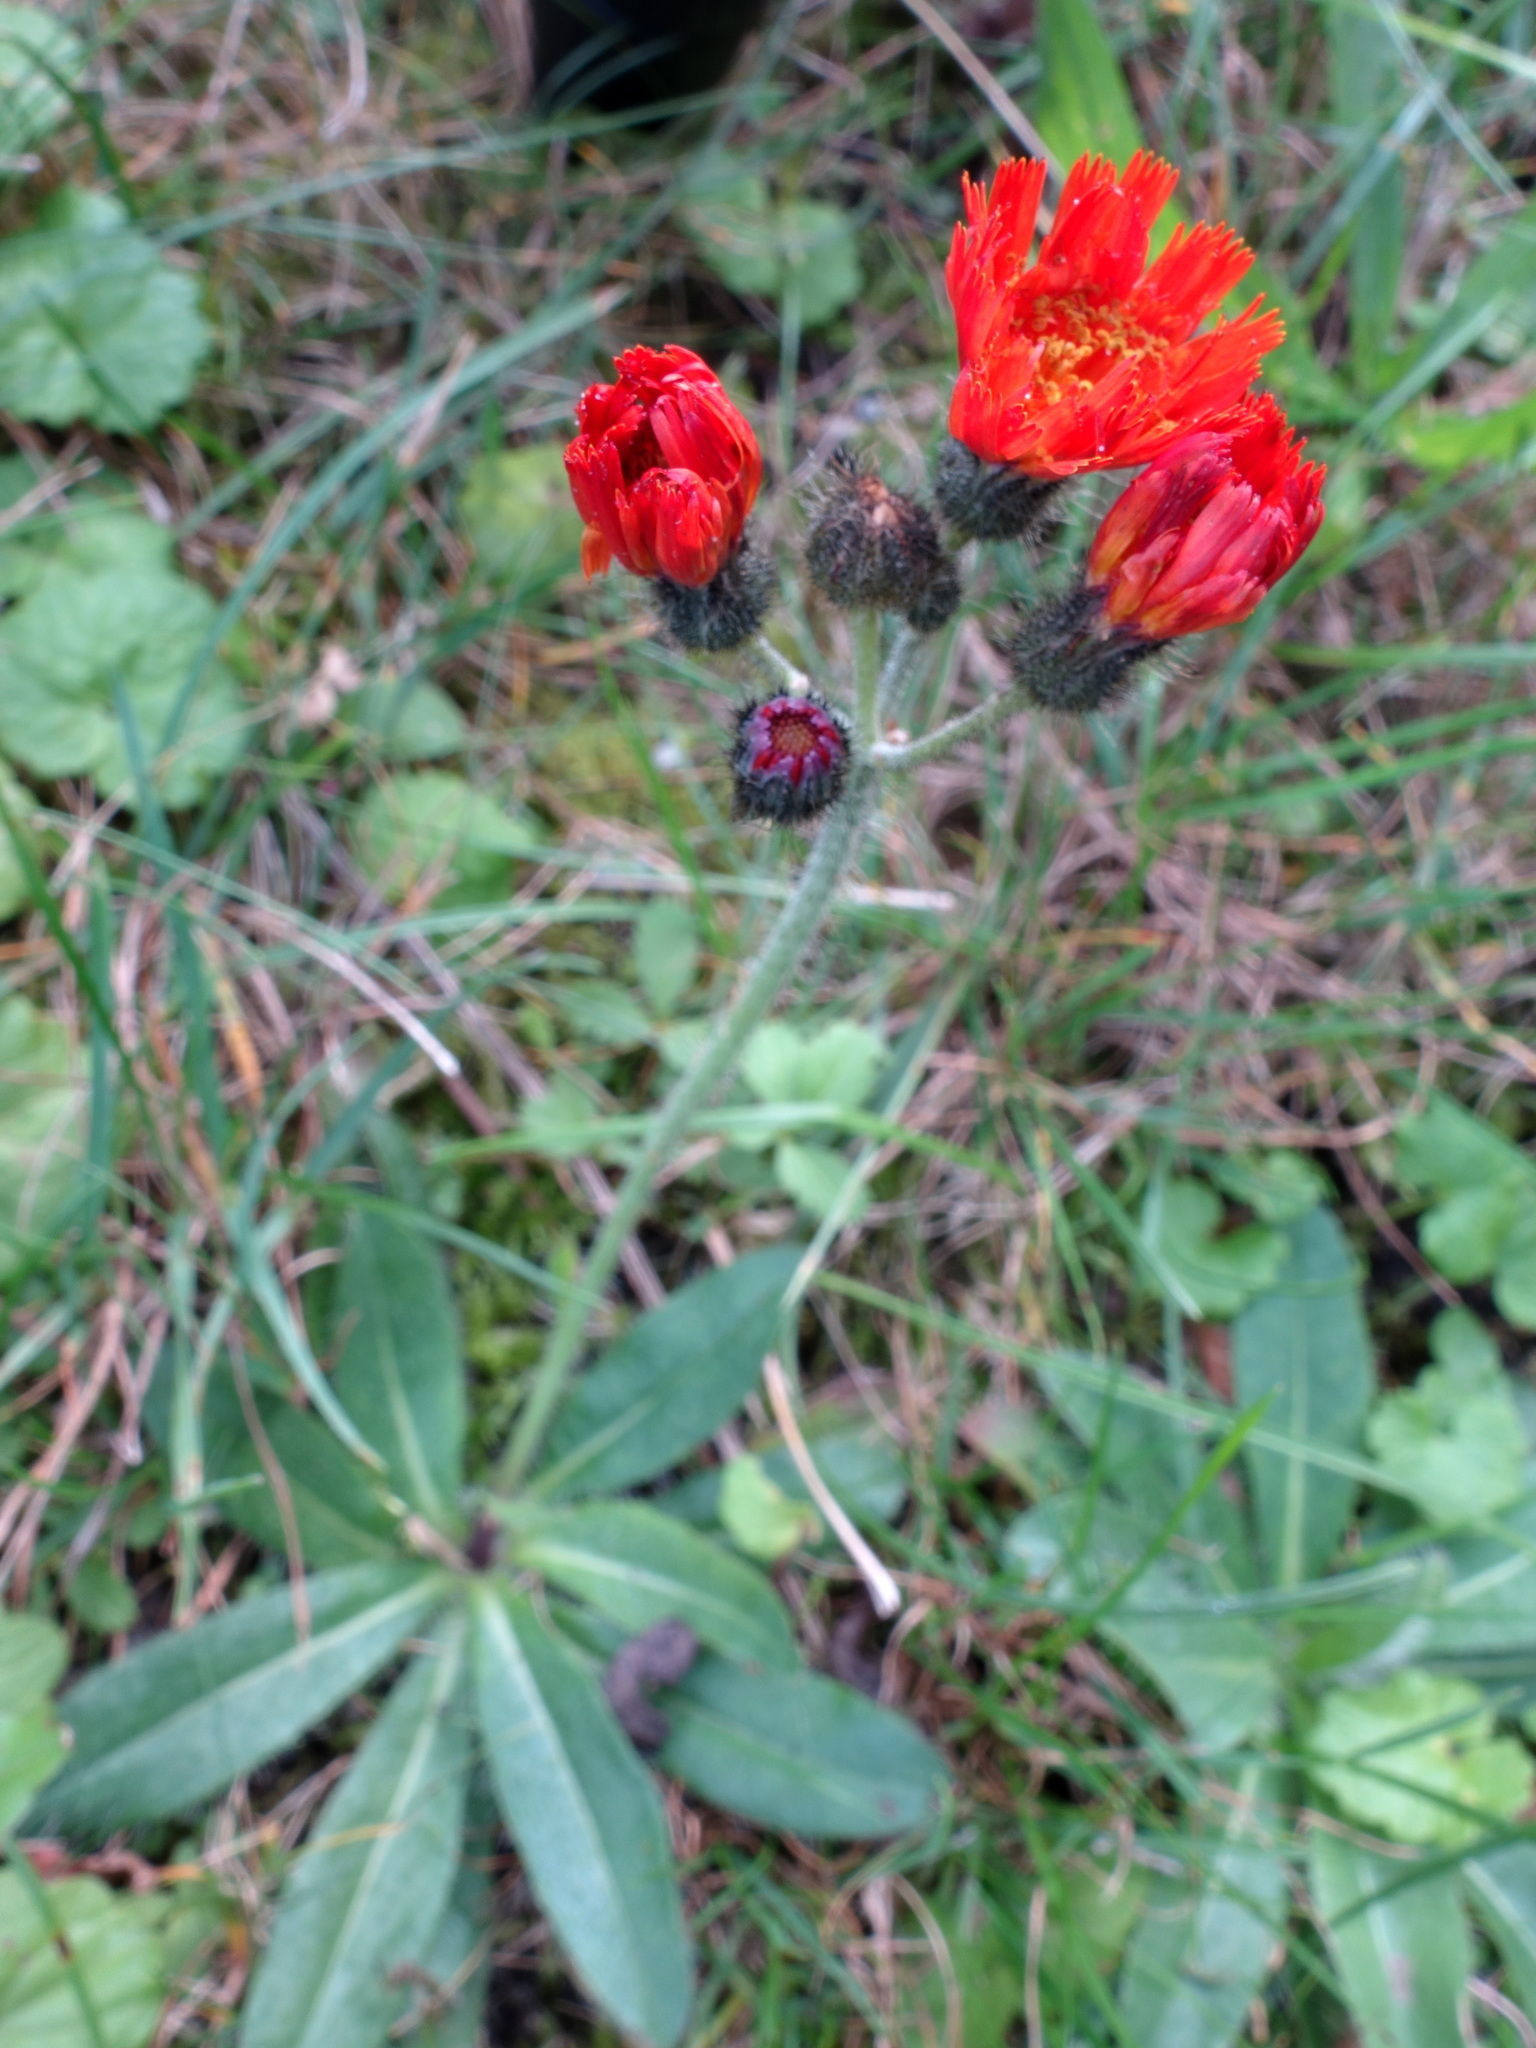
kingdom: Plantae
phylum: Tracheophyta
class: Magnoliopsida
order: Asterales
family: Asteraceae
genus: Pilosella
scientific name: Pilosella aurantiaca
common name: Fox-and-cubs
